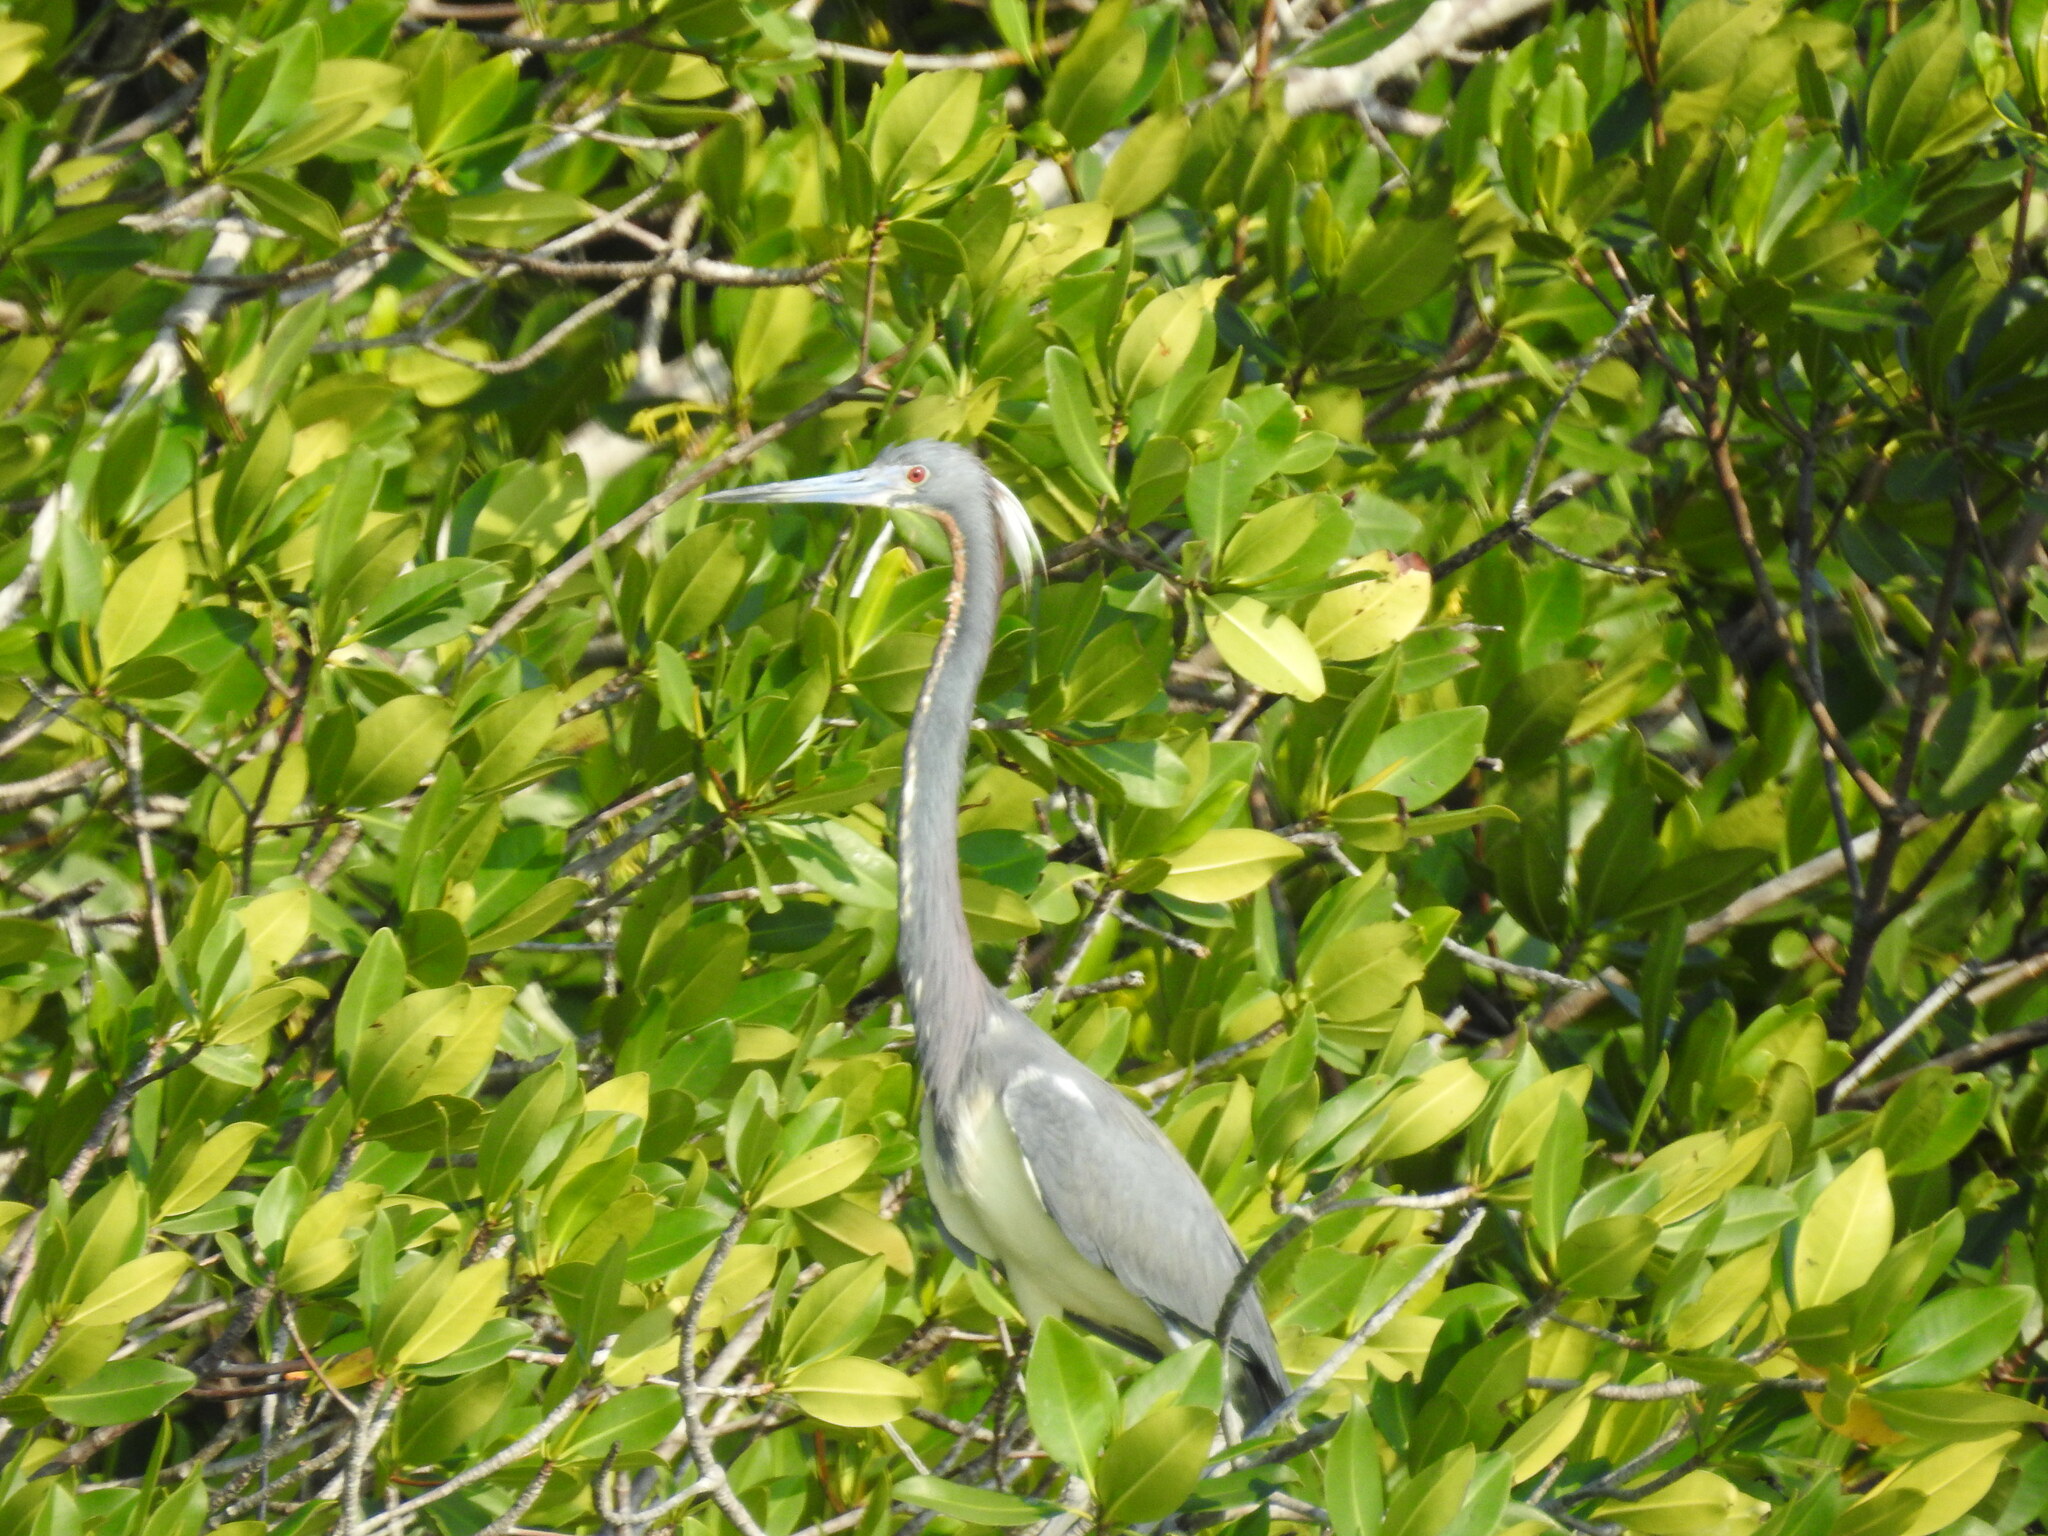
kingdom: Animalia
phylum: Chordata
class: Aves
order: Pelecaniformes
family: Ardeidae
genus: Egretta
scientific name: Egretta tricolor
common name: Tricolored heron
